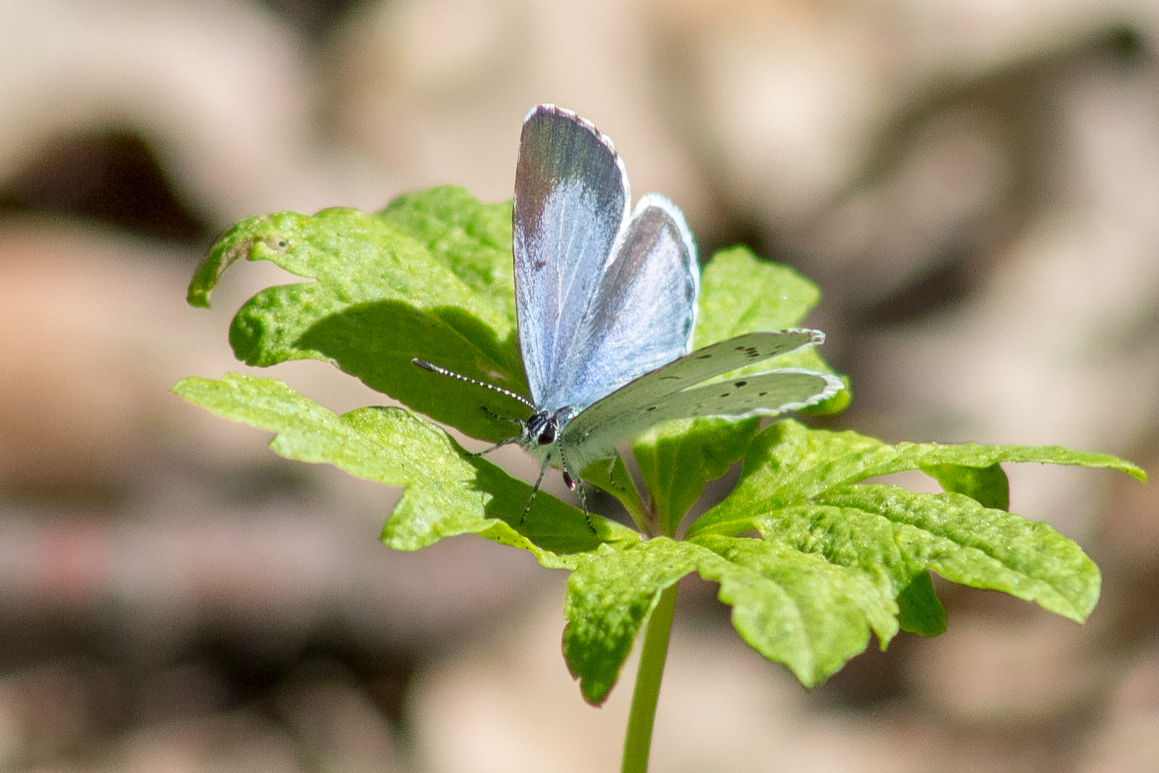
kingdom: Animalia
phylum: Arthropoda
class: Insecta
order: Lepidoptera
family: Lycaenidae
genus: Celastrina
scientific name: Celastrina argiolus
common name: Holly blue
